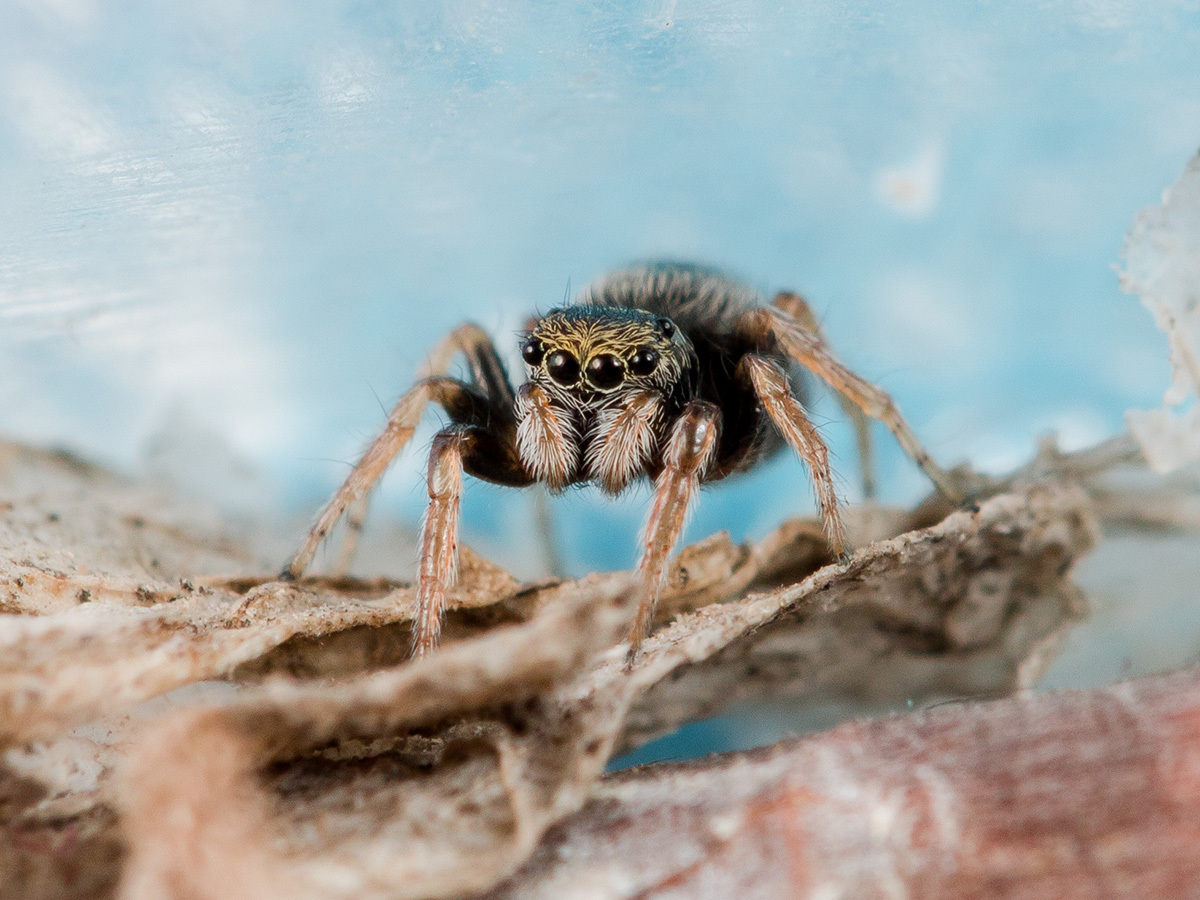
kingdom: Animalia
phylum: Arthropoda
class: Arachnida
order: Araneae
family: Salticidae
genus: Chalcoscirtus
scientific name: Chalcoscirtus karakurt
